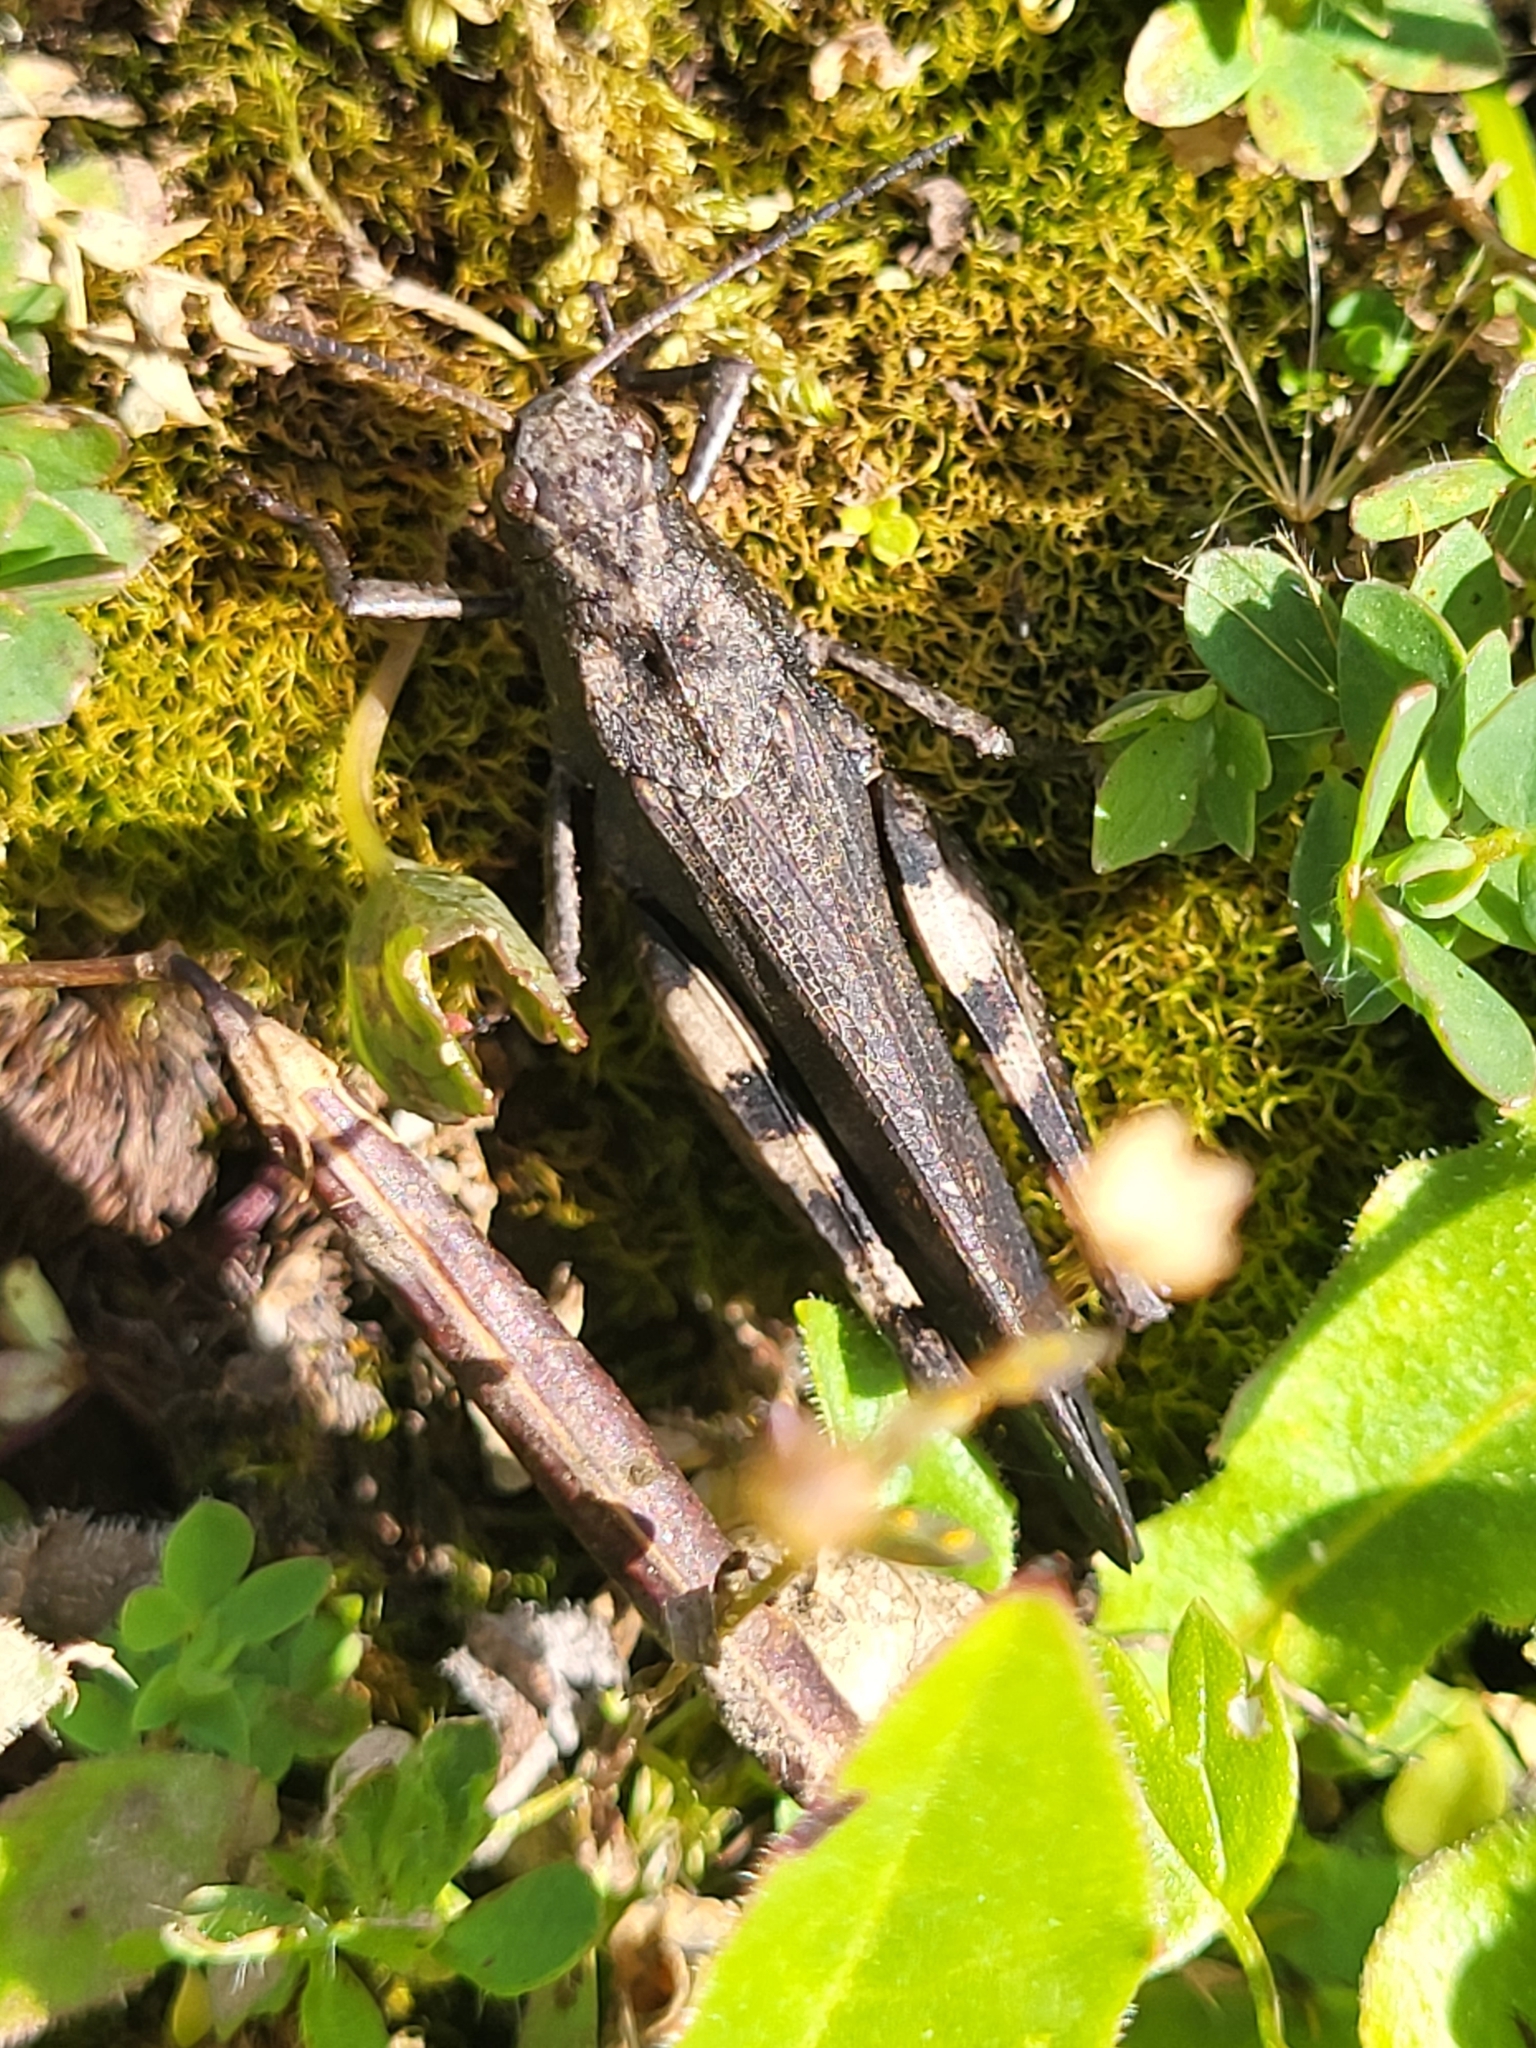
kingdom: Animalia
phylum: Arthropoda
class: Insecta
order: Orthoptera
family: Acrididae
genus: Psophus
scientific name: Psophus stridulus
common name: Rattle grasshopper
